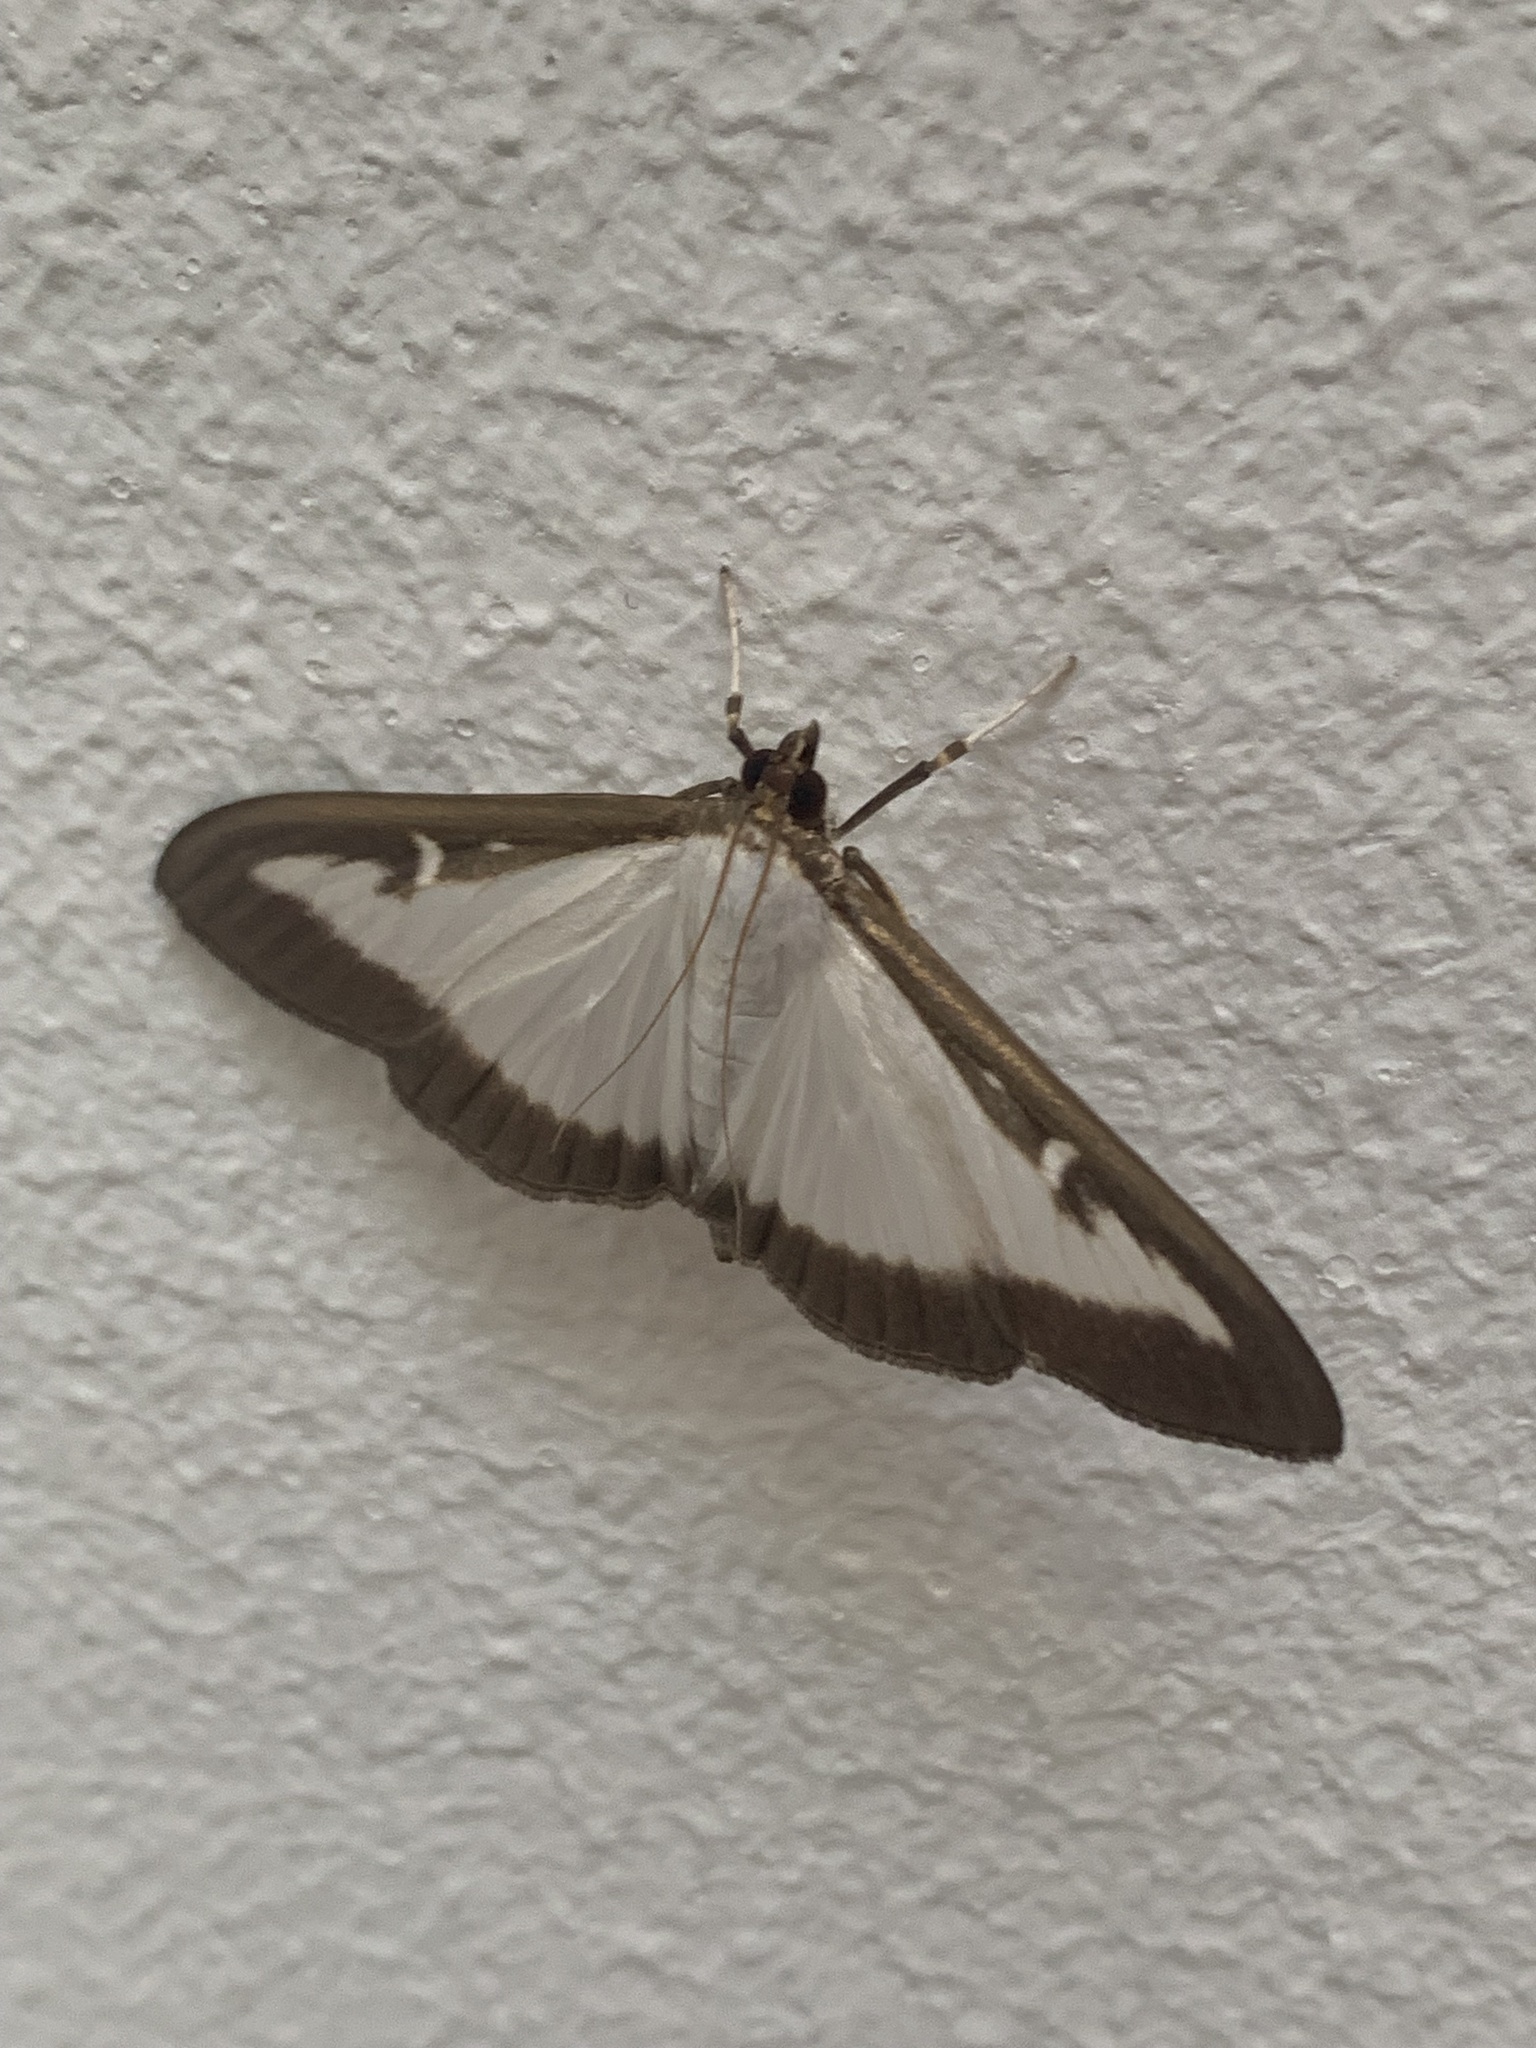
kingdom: Animalia
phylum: Arthropoda
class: Insecta
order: Lepidoptera
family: Crambidae
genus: Cydalima
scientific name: Cydalima perspectalis
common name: Box tree moth
